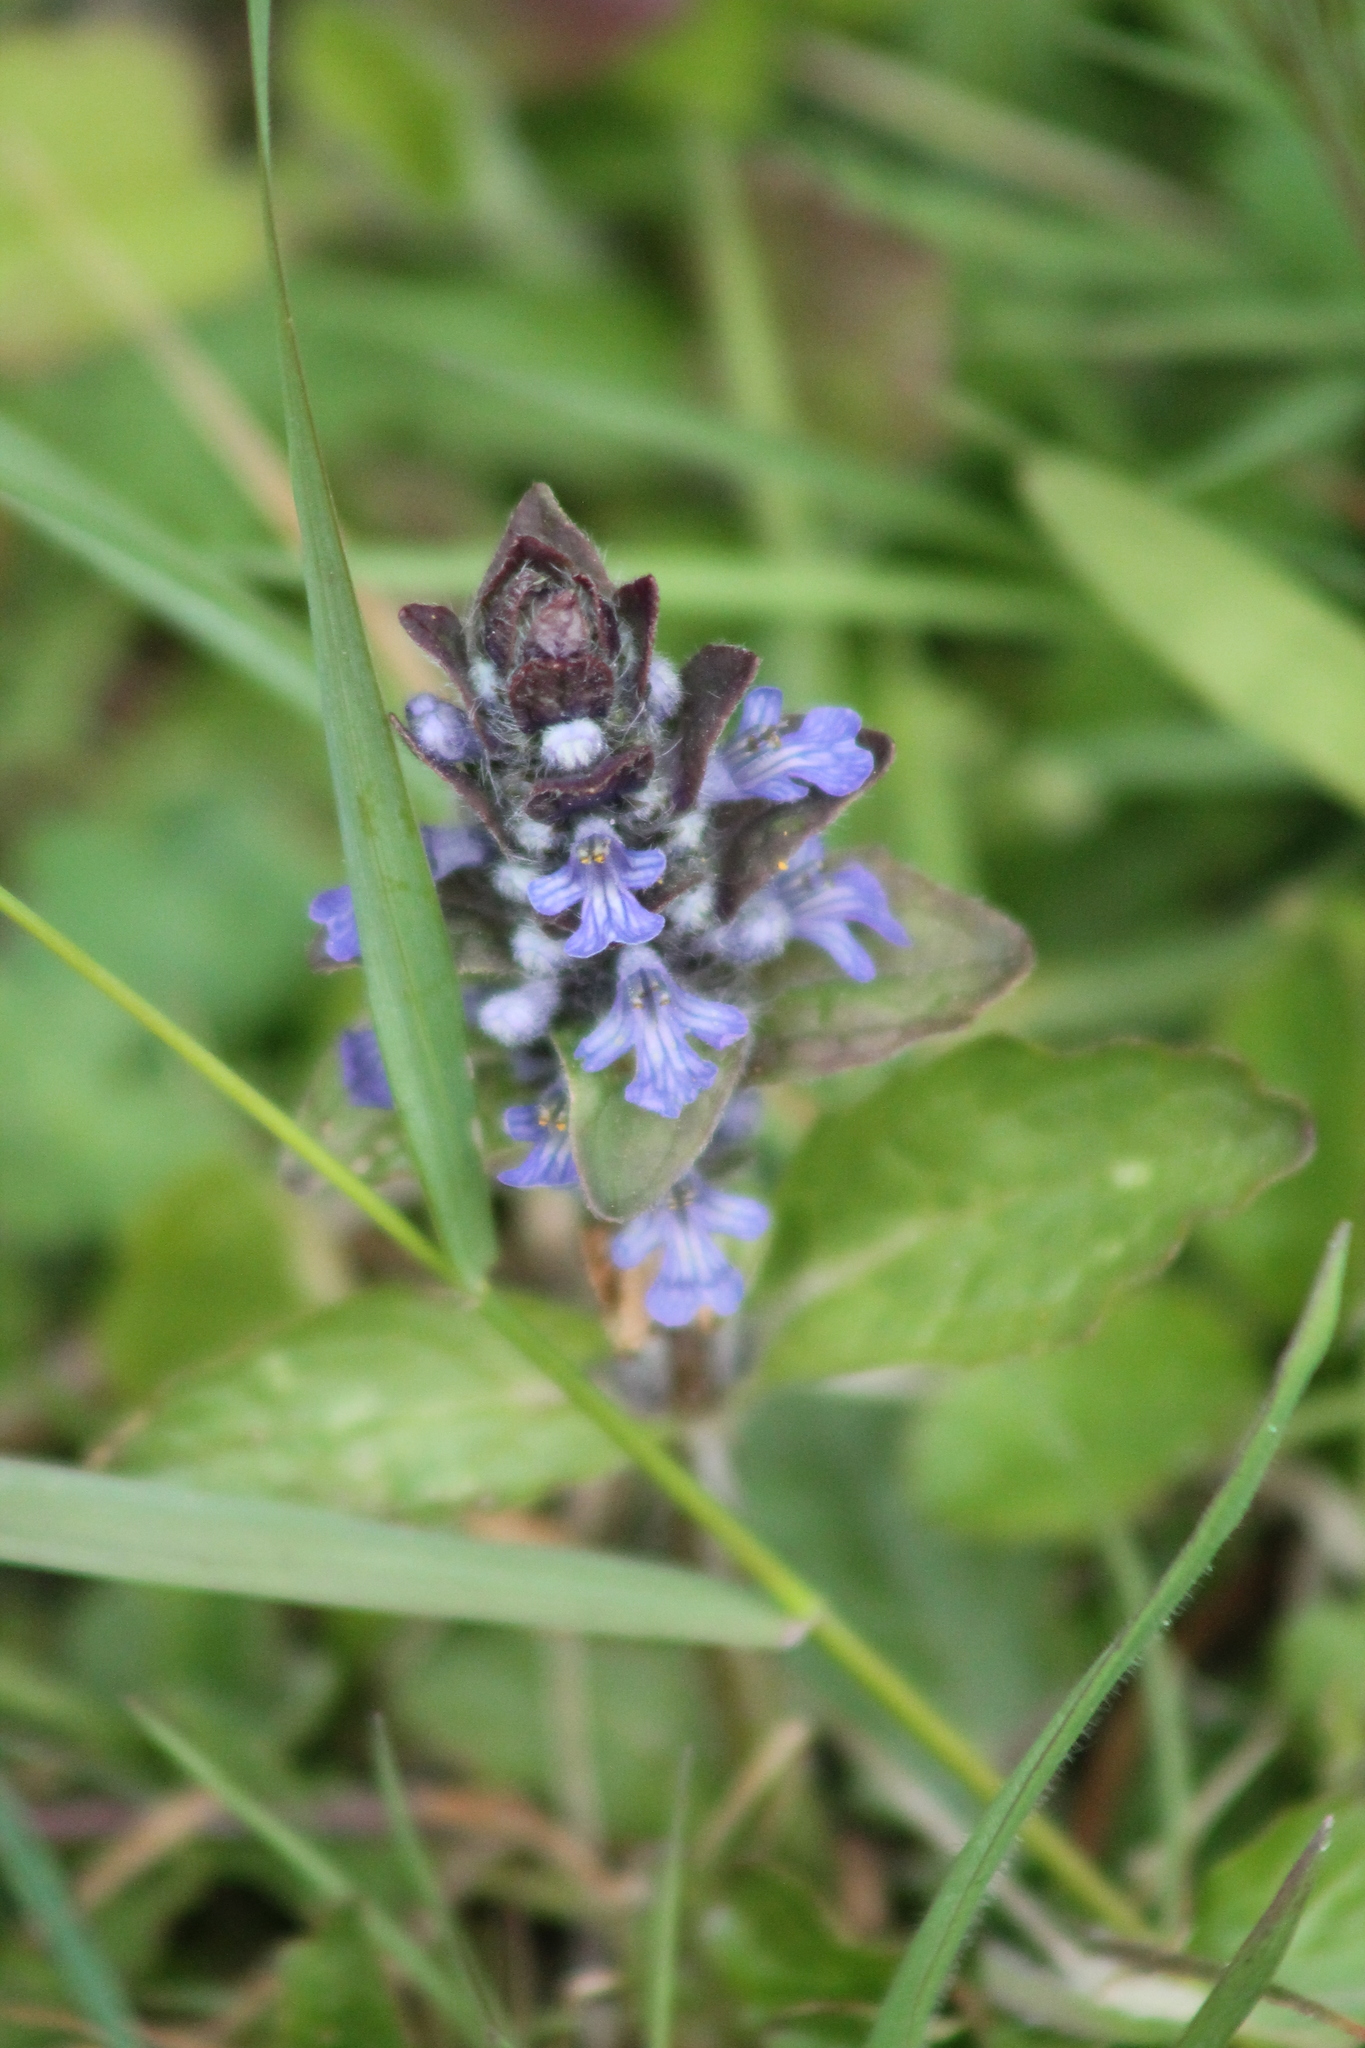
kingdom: Plantae
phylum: Tracheophyta
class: Magnoliopsida
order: Lamiales
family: Lamiaceae
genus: Ajuga
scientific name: Ajuga reptans
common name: Bugle
